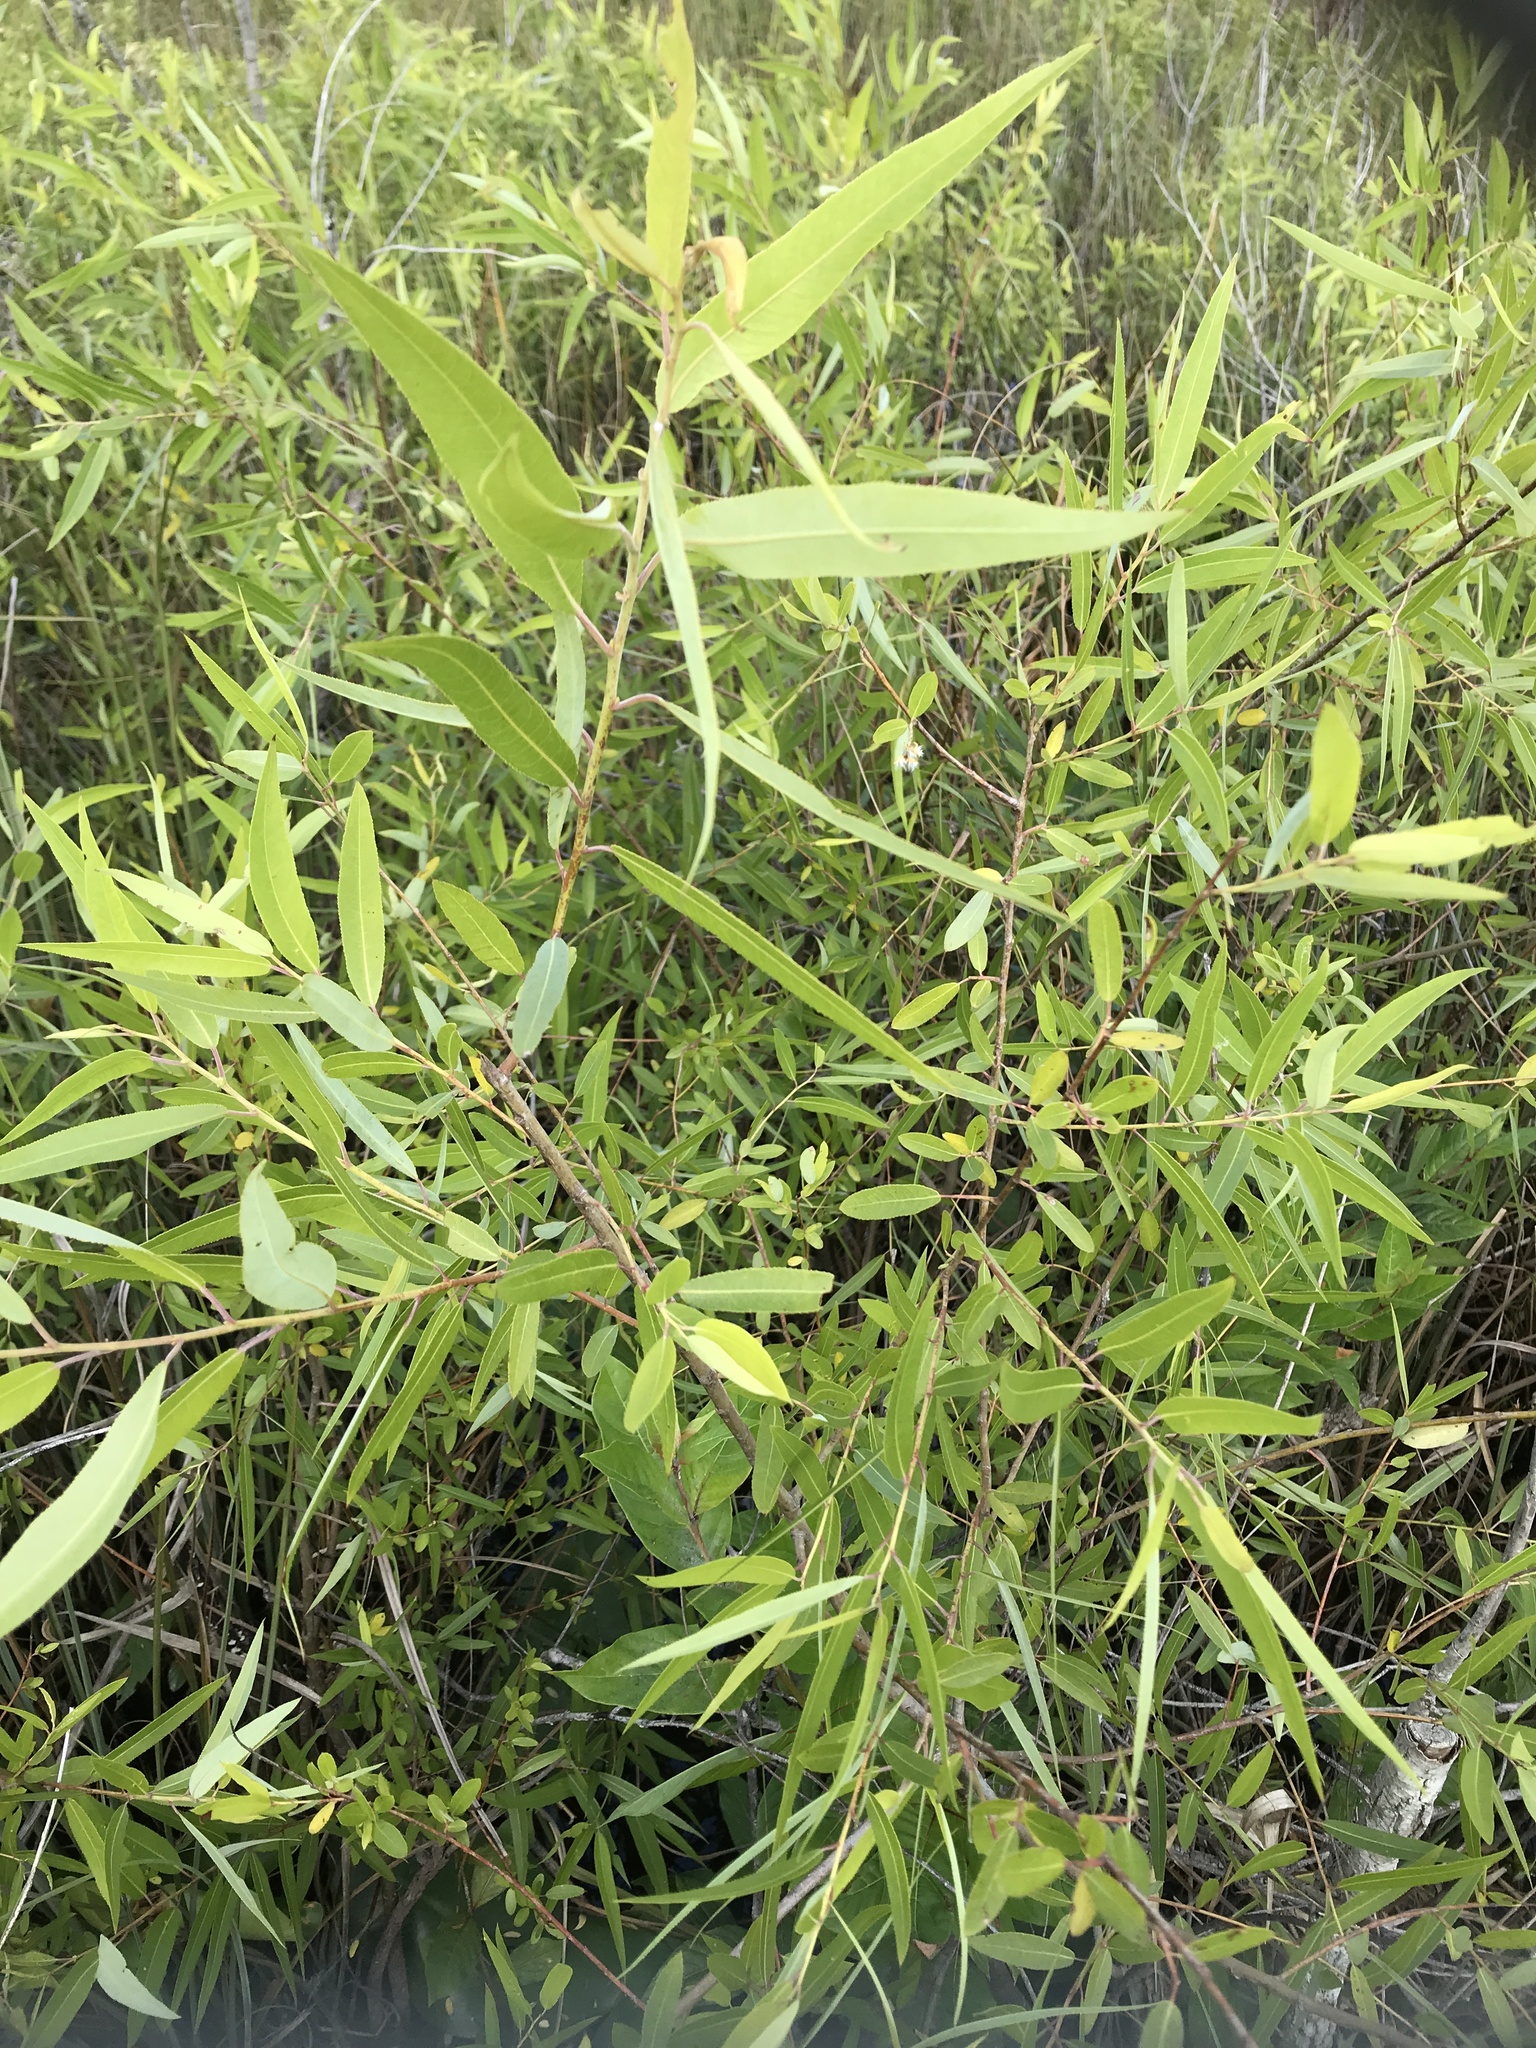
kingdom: Plantae
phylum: Tracheophyta
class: Magnoliopsida
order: Malpighiales
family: Salicaceae
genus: Salix
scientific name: Salix caroliniana
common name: Carolina willow
